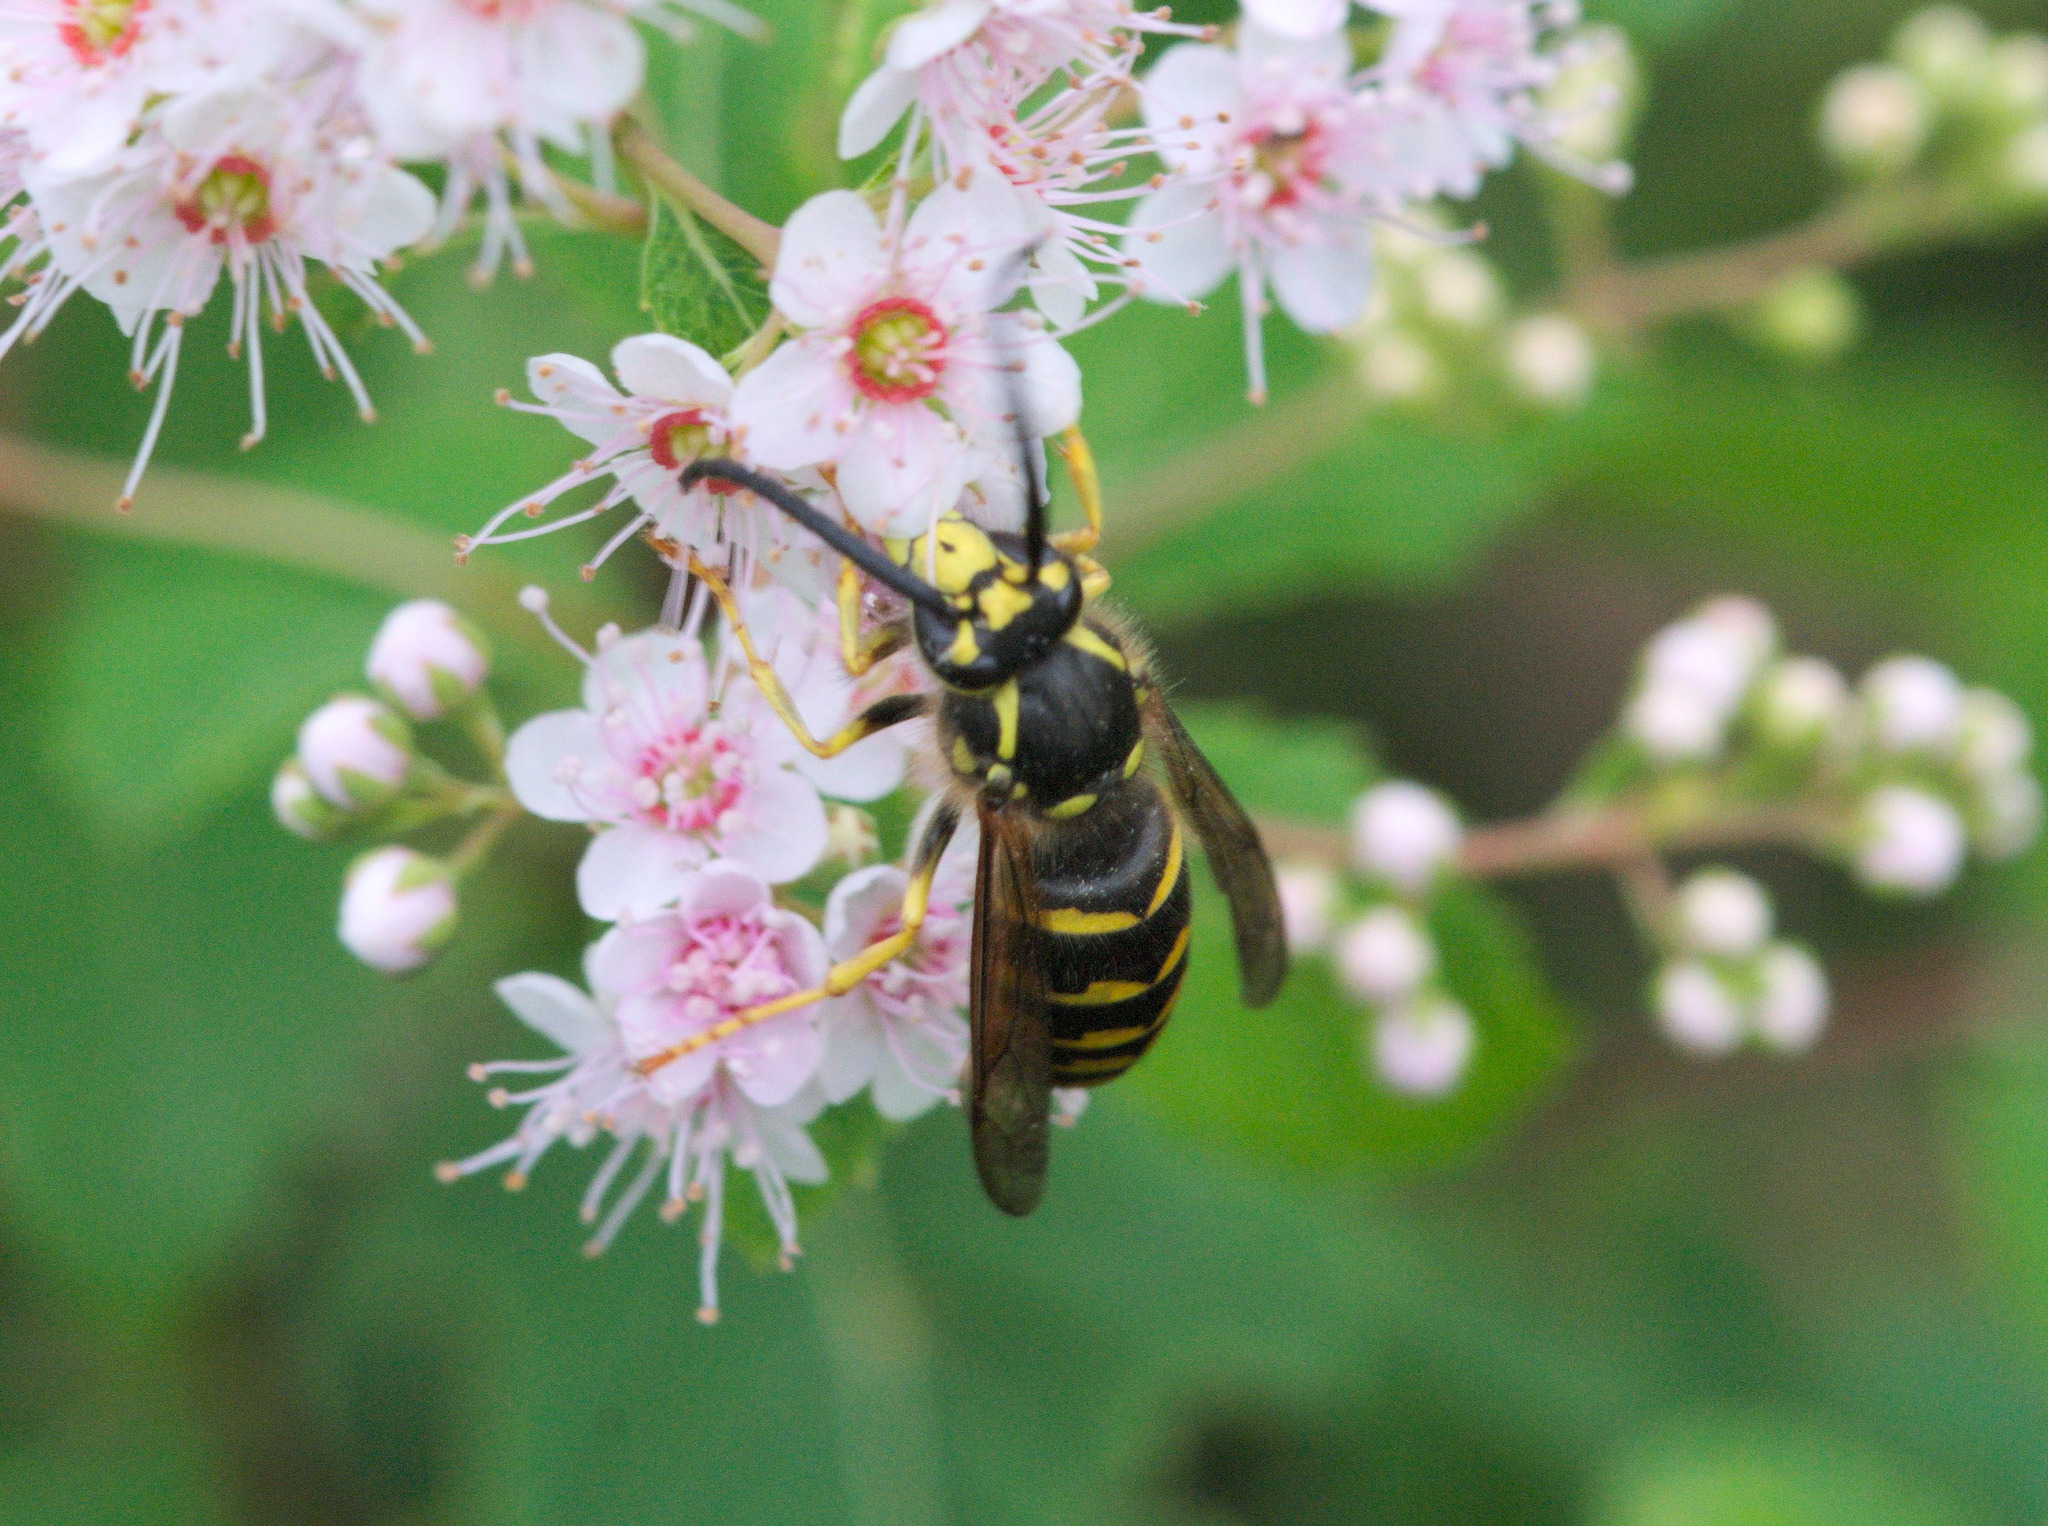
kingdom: Animalia
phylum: Arthropoda
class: Insecta
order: Hymenoptera
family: Vespidae
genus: Dolichovespula
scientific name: Dolichovespula arenaria
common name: Aerial yellowjacket
